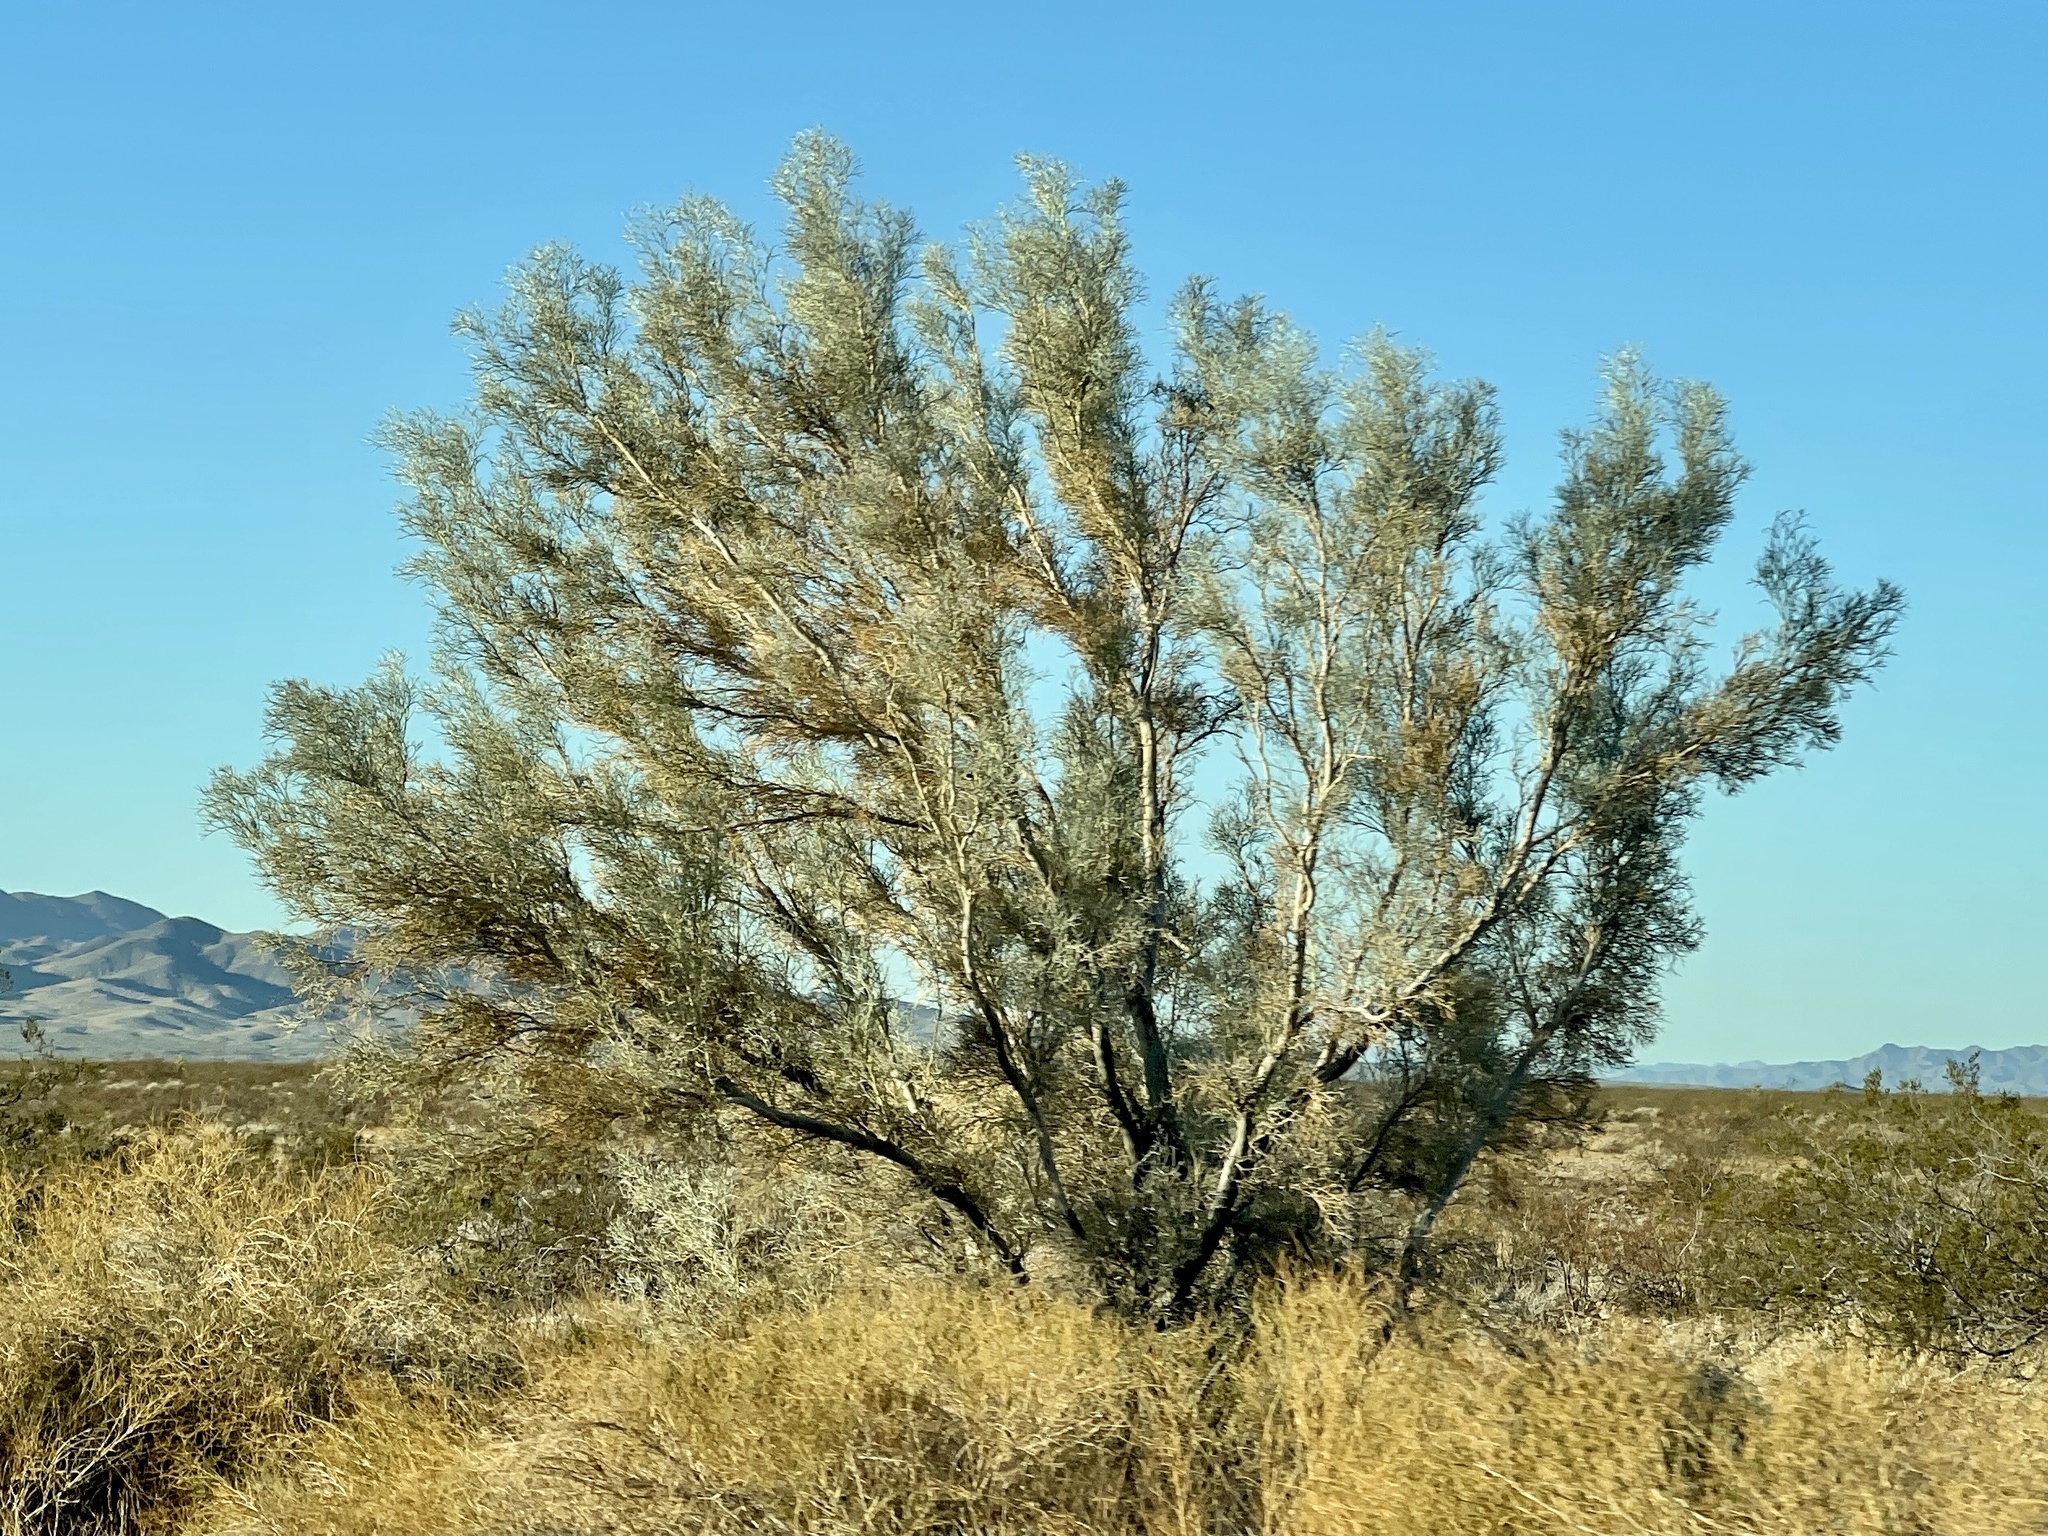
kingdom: Plantae
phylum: Tracheophyta
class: Magnoliopsida
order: Fabales
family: Fabaceae
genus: Psorothamnus
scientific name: Psorothamnus spinosus
